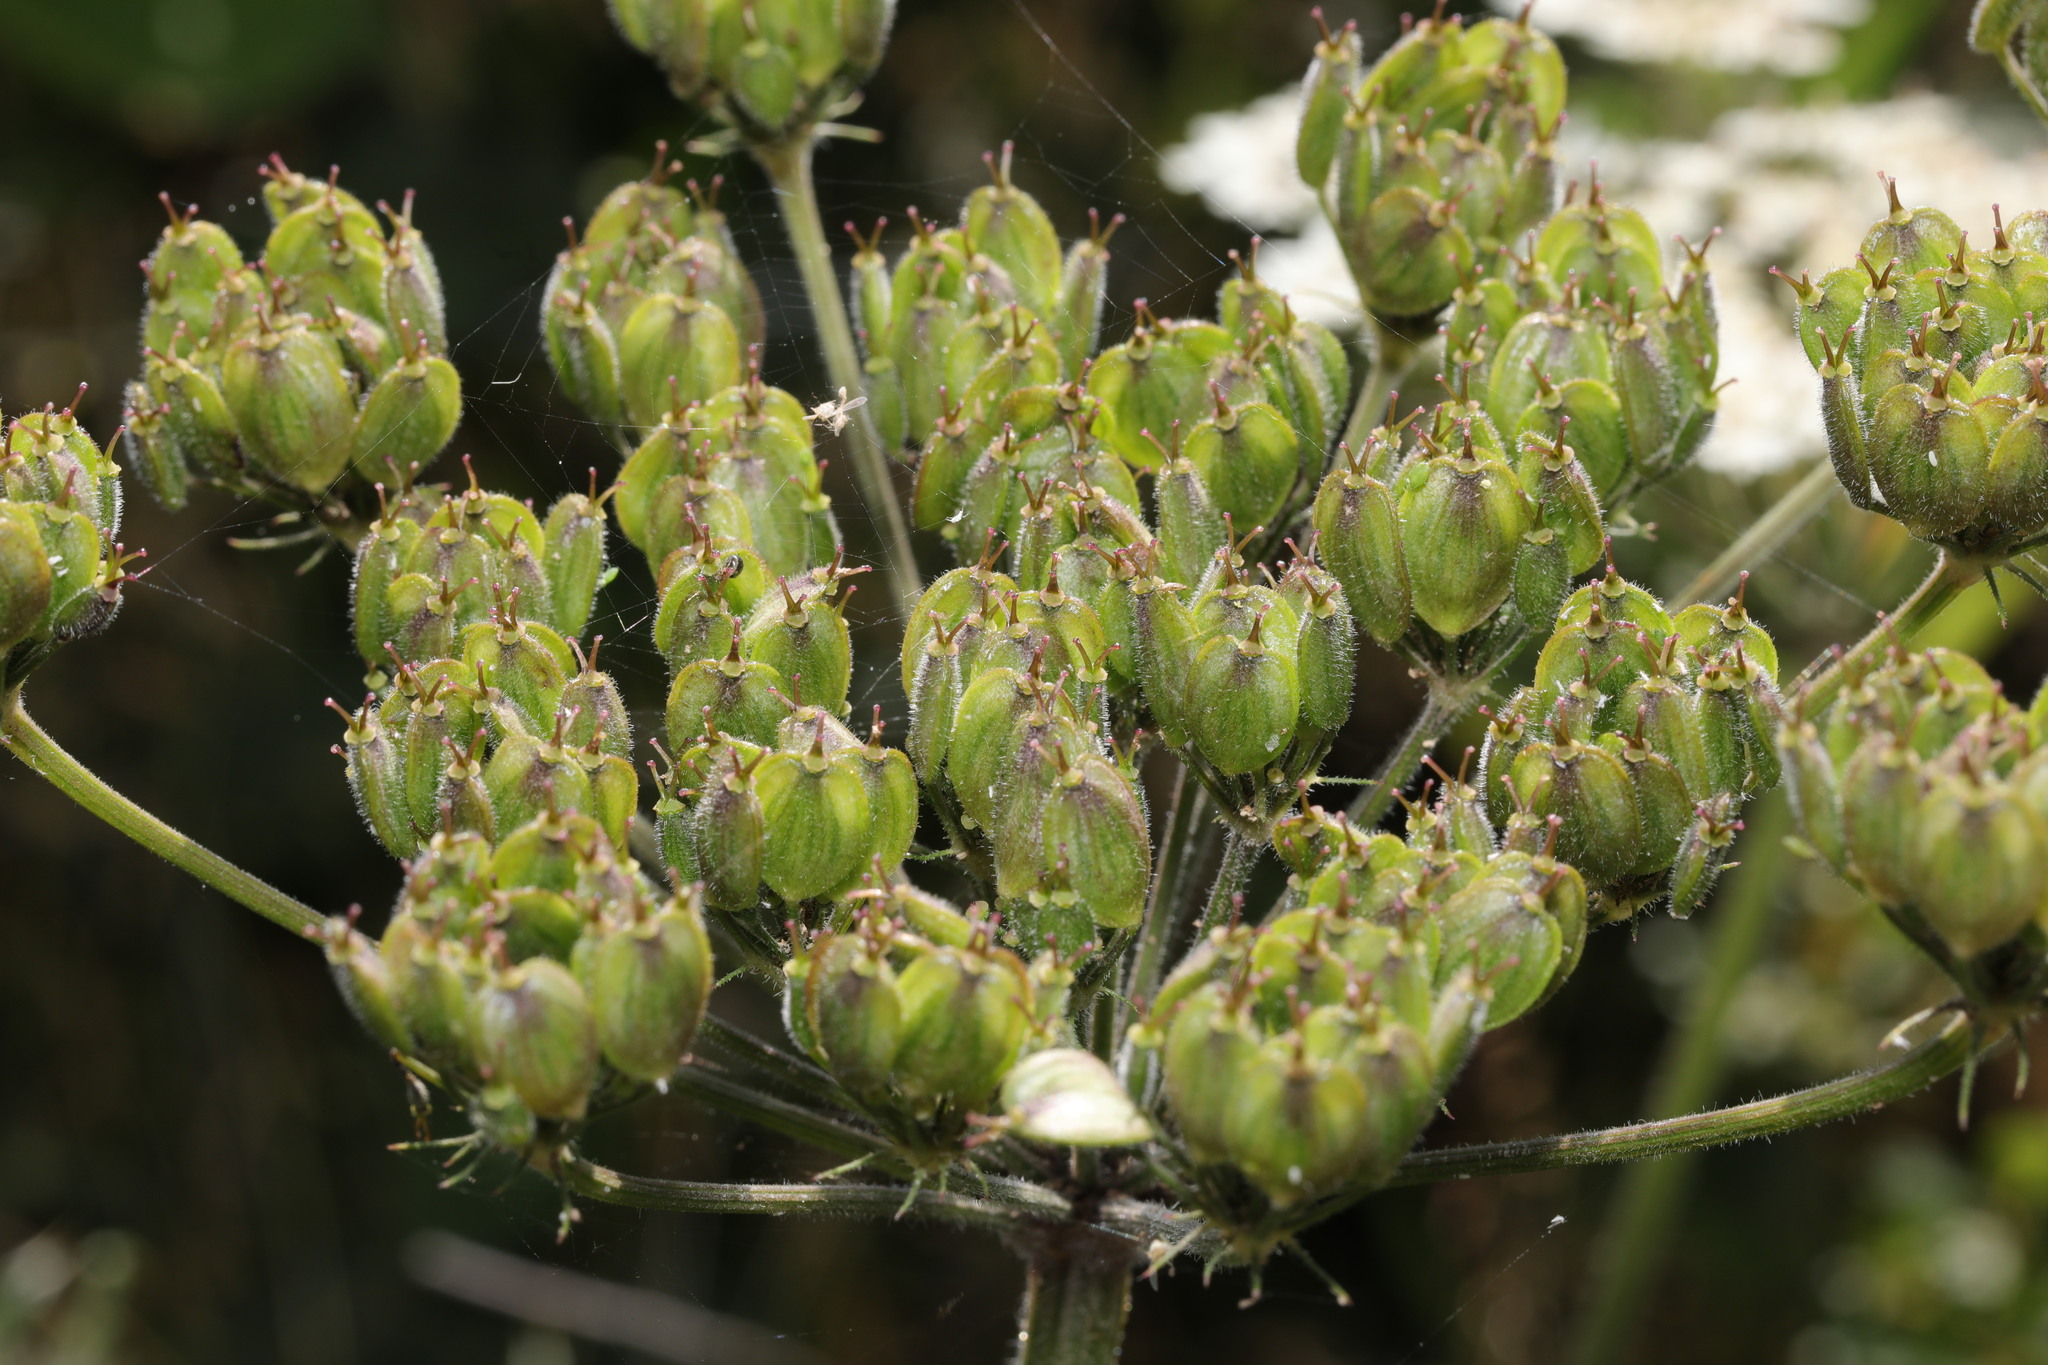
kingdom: Plantae
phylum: Tracheophyta
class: Magnoliopsida
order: Apiales
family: Apiaceae
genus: Heracleum
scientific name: Heracleum sphondylium
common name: Hogweed
